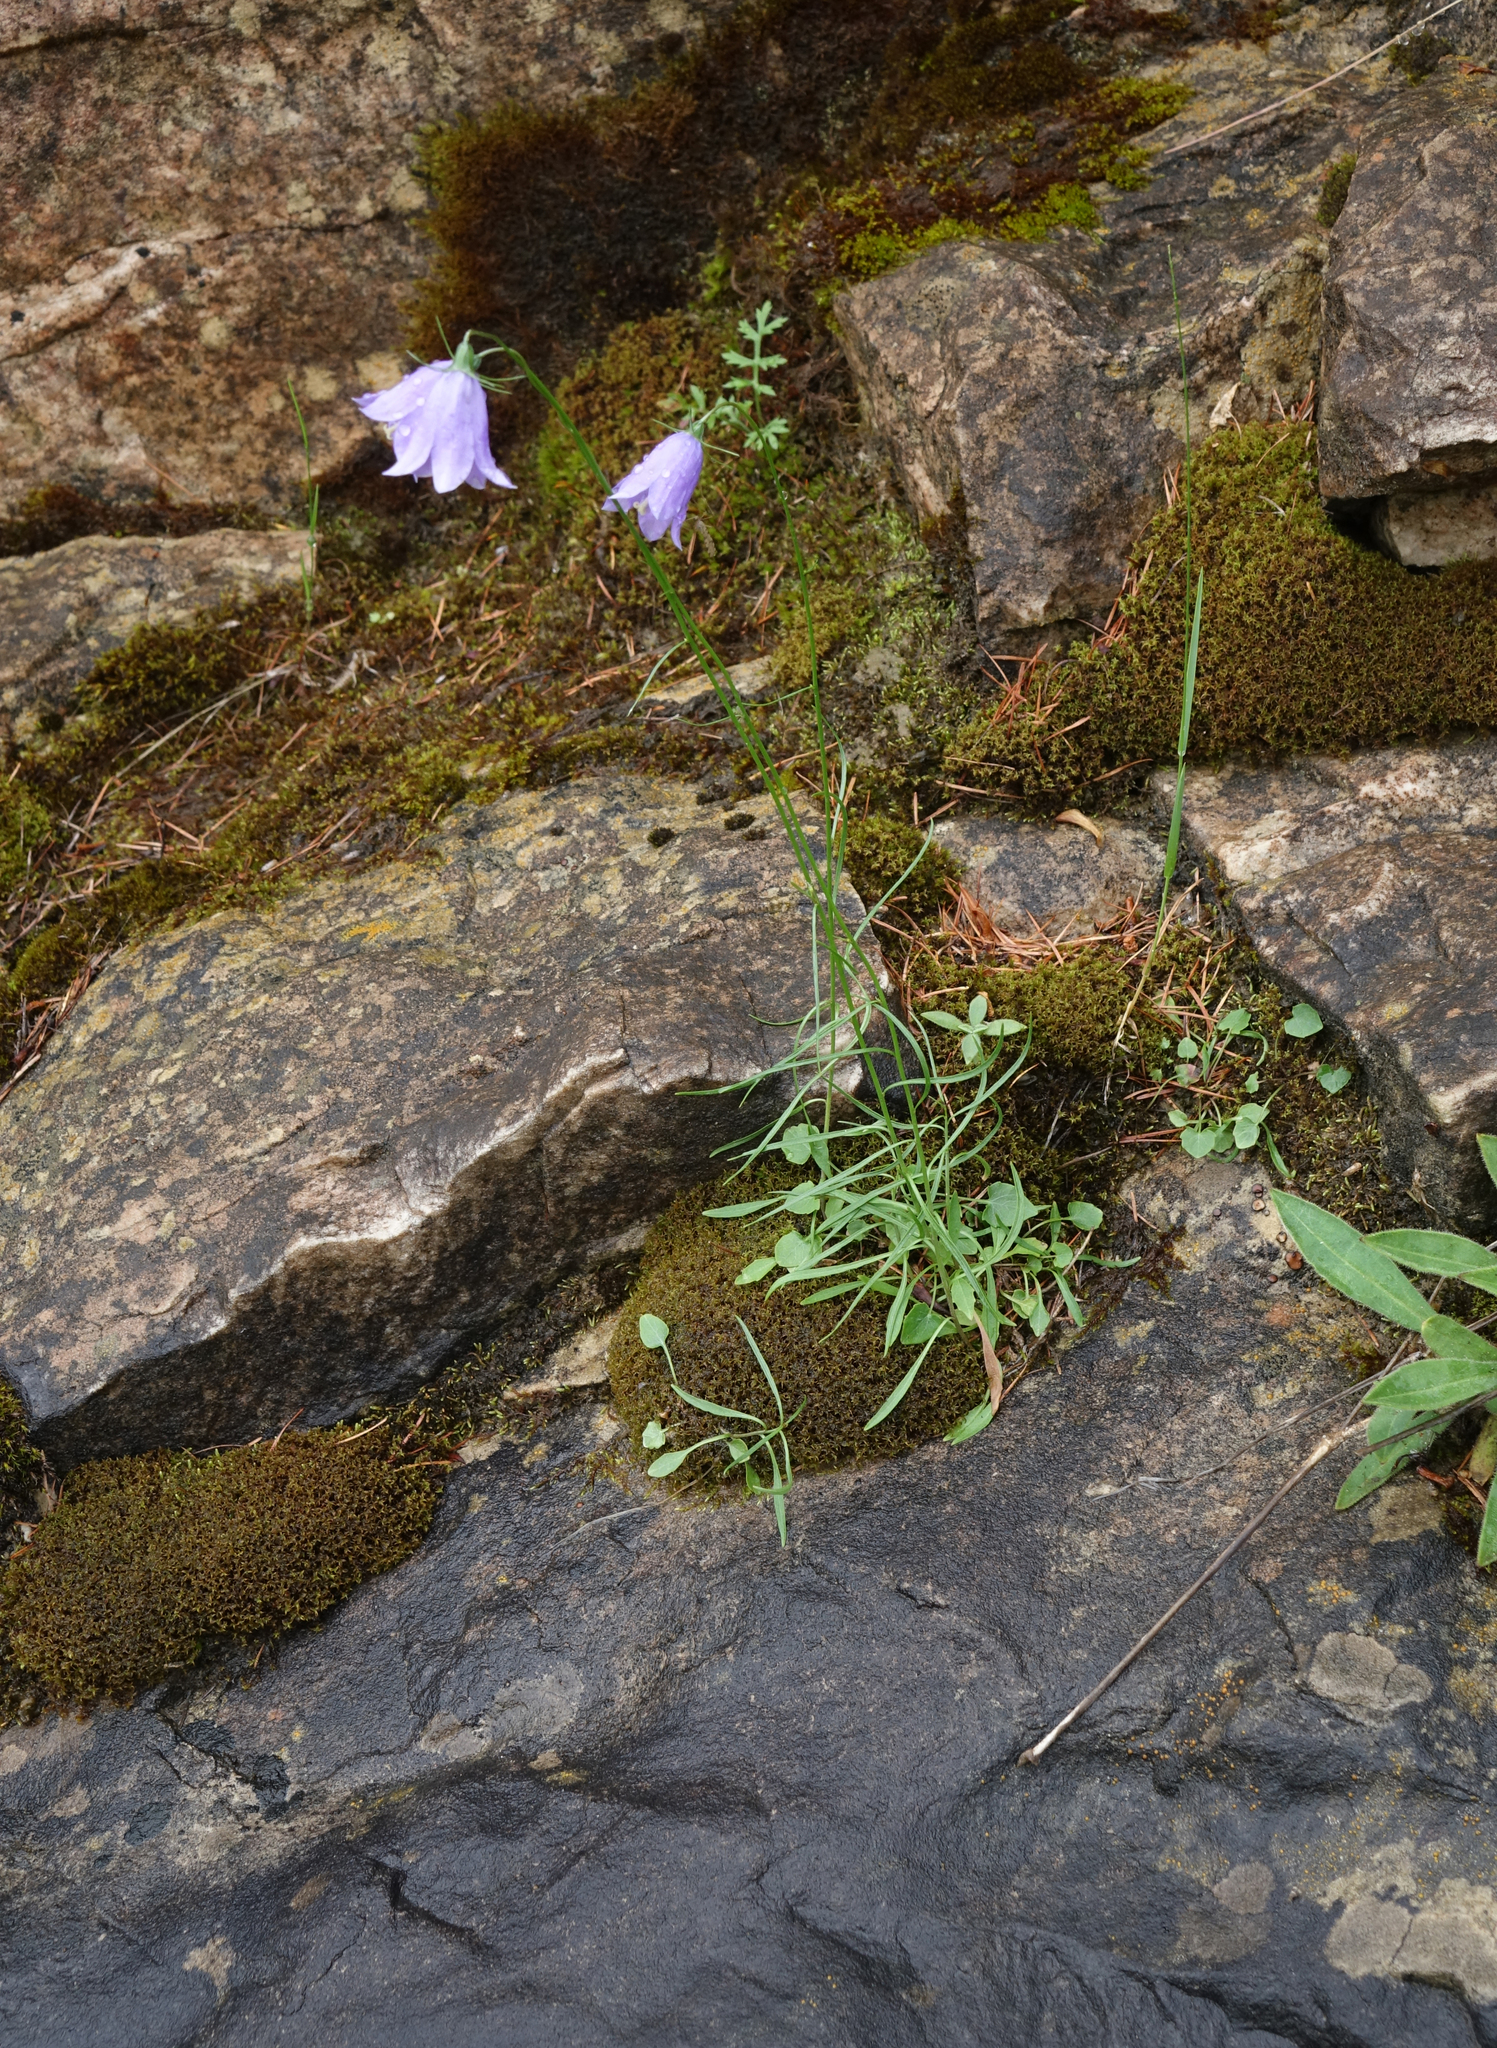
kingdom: Plantae
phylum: Tracheophyta
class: Magnoliopsida
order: Asterales
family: Campanulaceae
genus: Campanula
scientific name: Campanula rotundifolia
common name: Harebell
